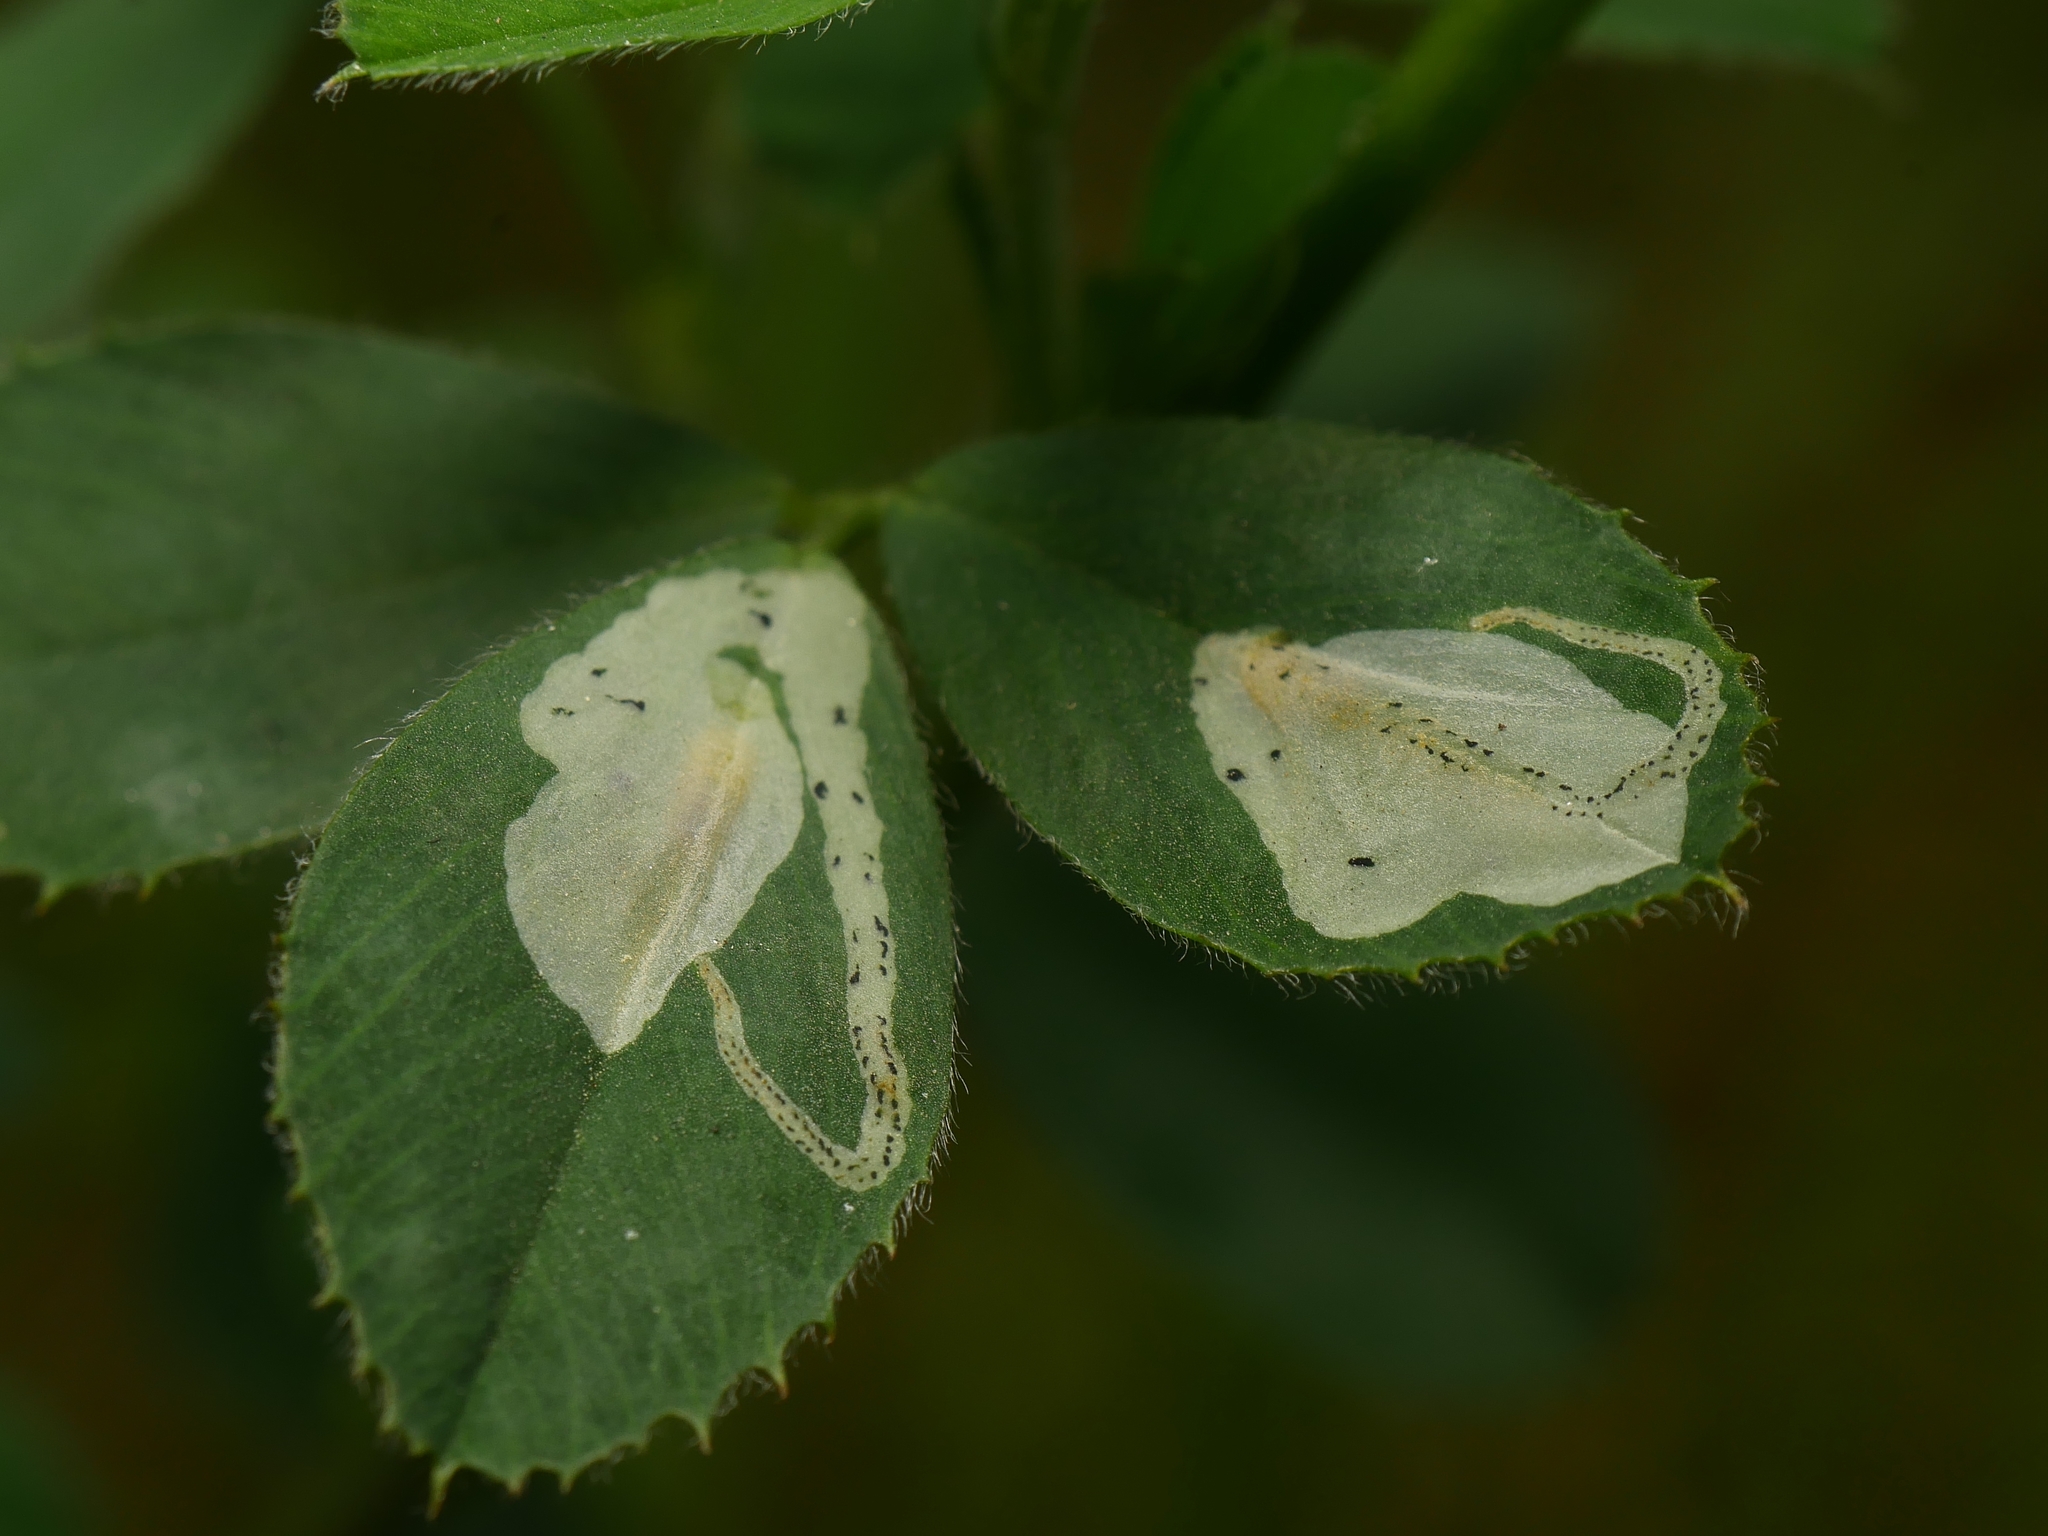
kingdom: Animalia
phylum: Arthropoda
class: Insecta
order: Diptera
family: Agromyzidae
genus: Agromyza
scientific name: Agromyza nana
